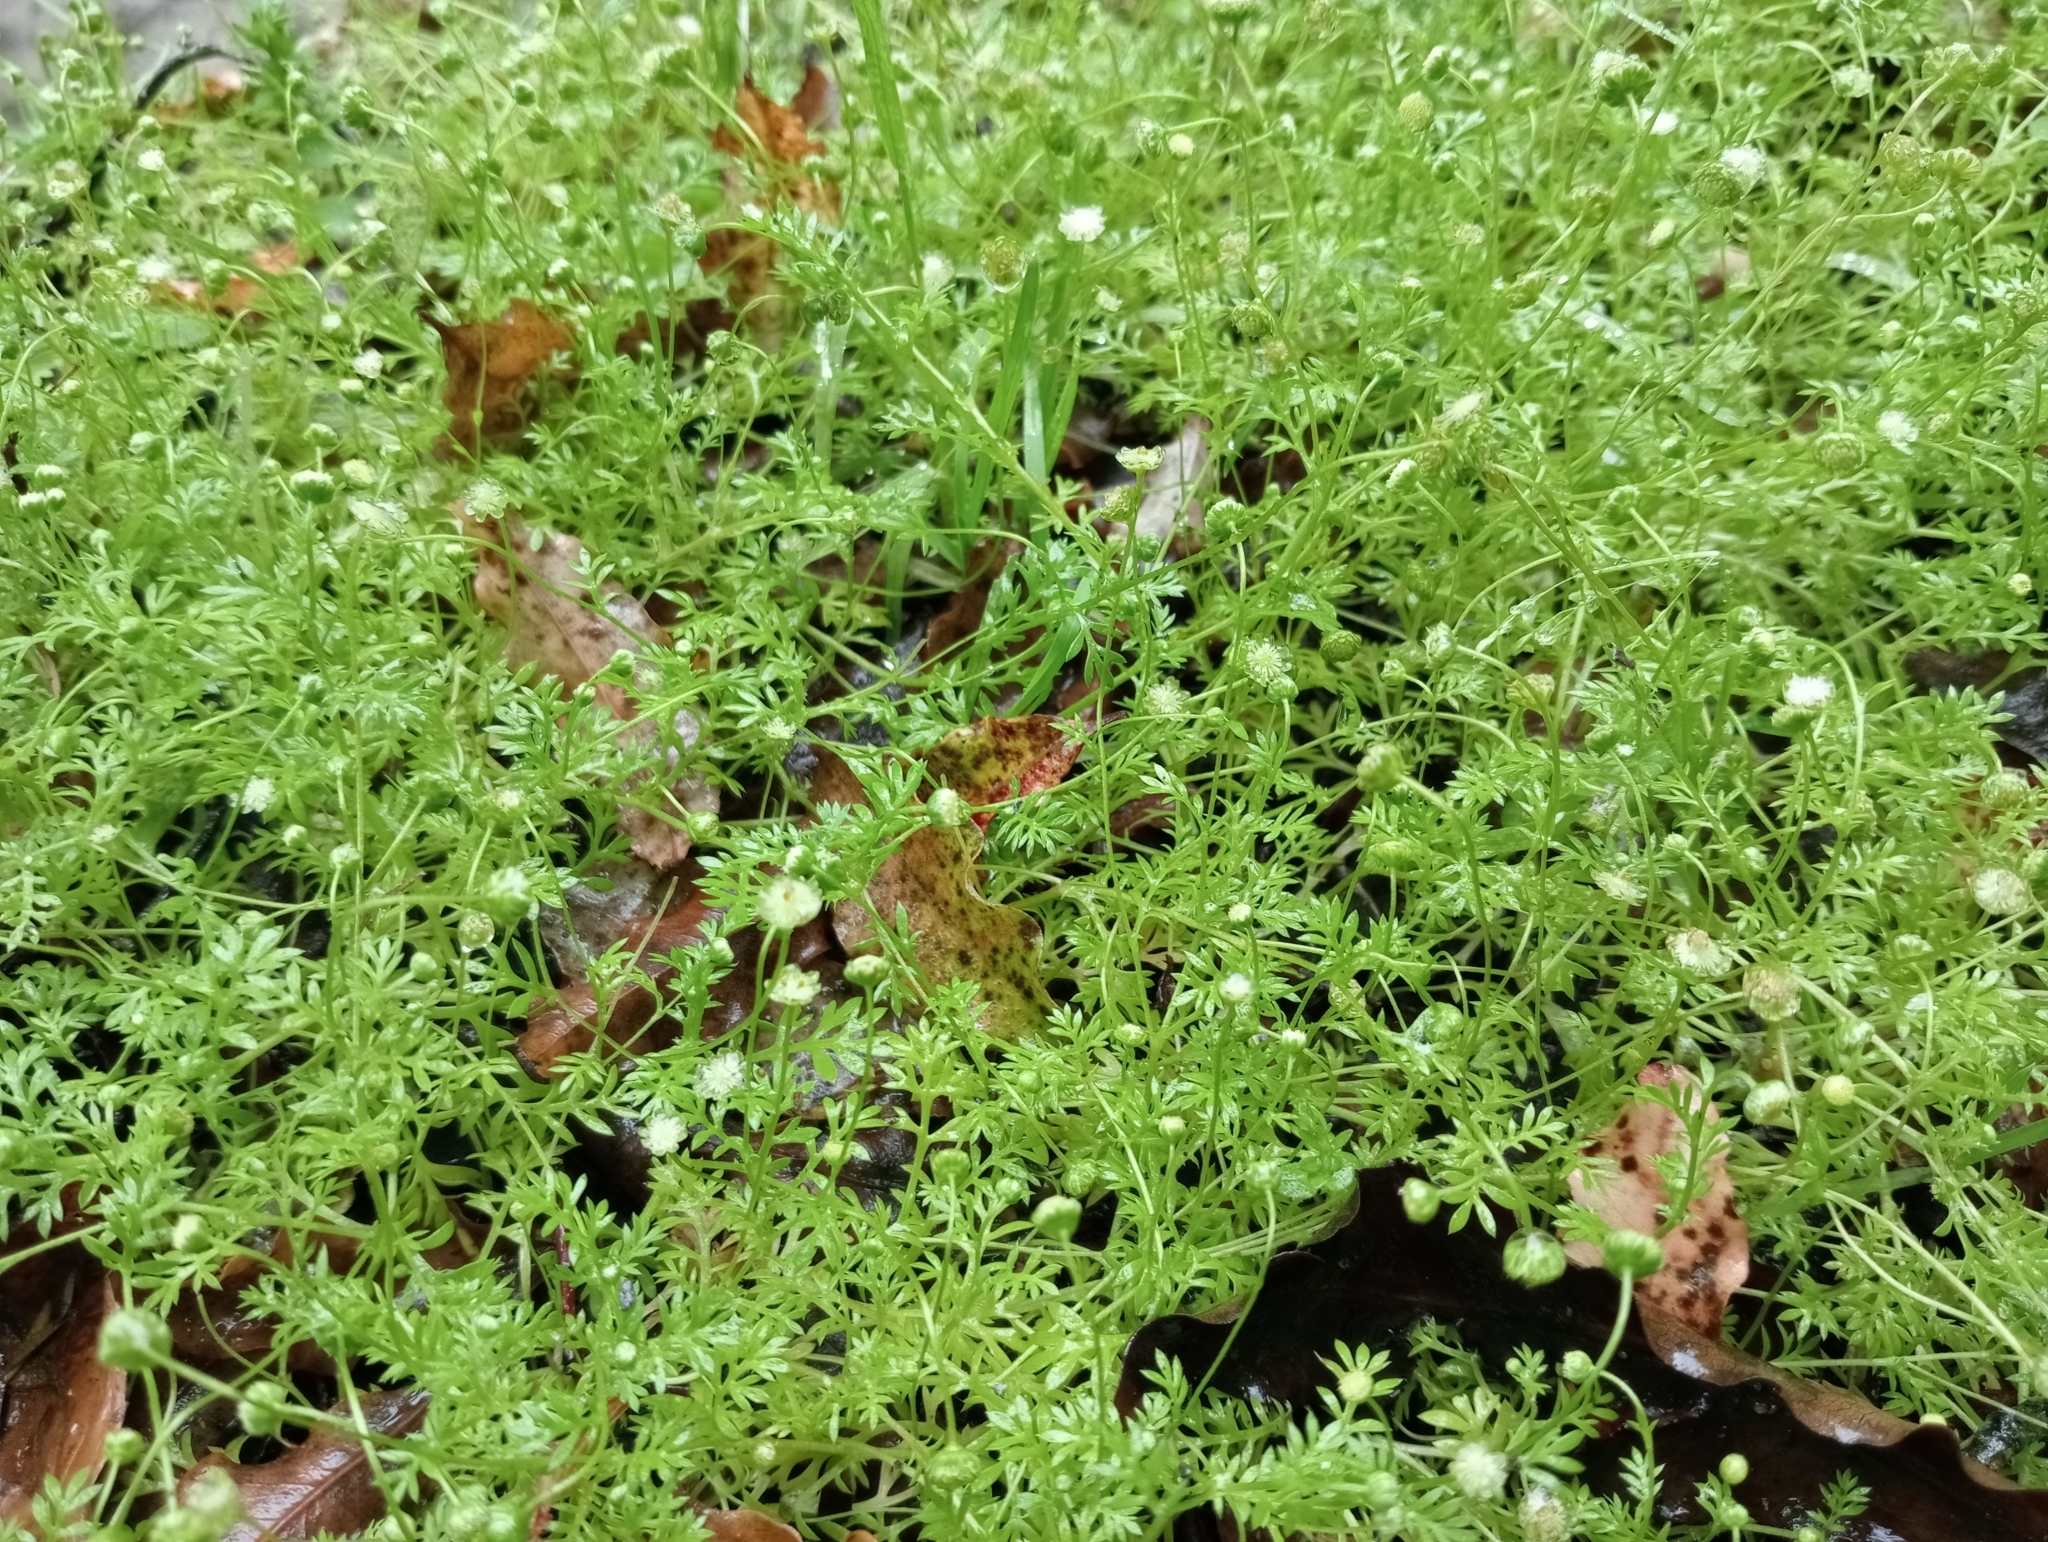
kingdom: Plantae
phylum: Tracheophyta
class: Magnoliopsida
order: Asterales
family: Asteraceae
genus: Cotula
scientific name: Cotula australis
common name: Australian waterbuttons
